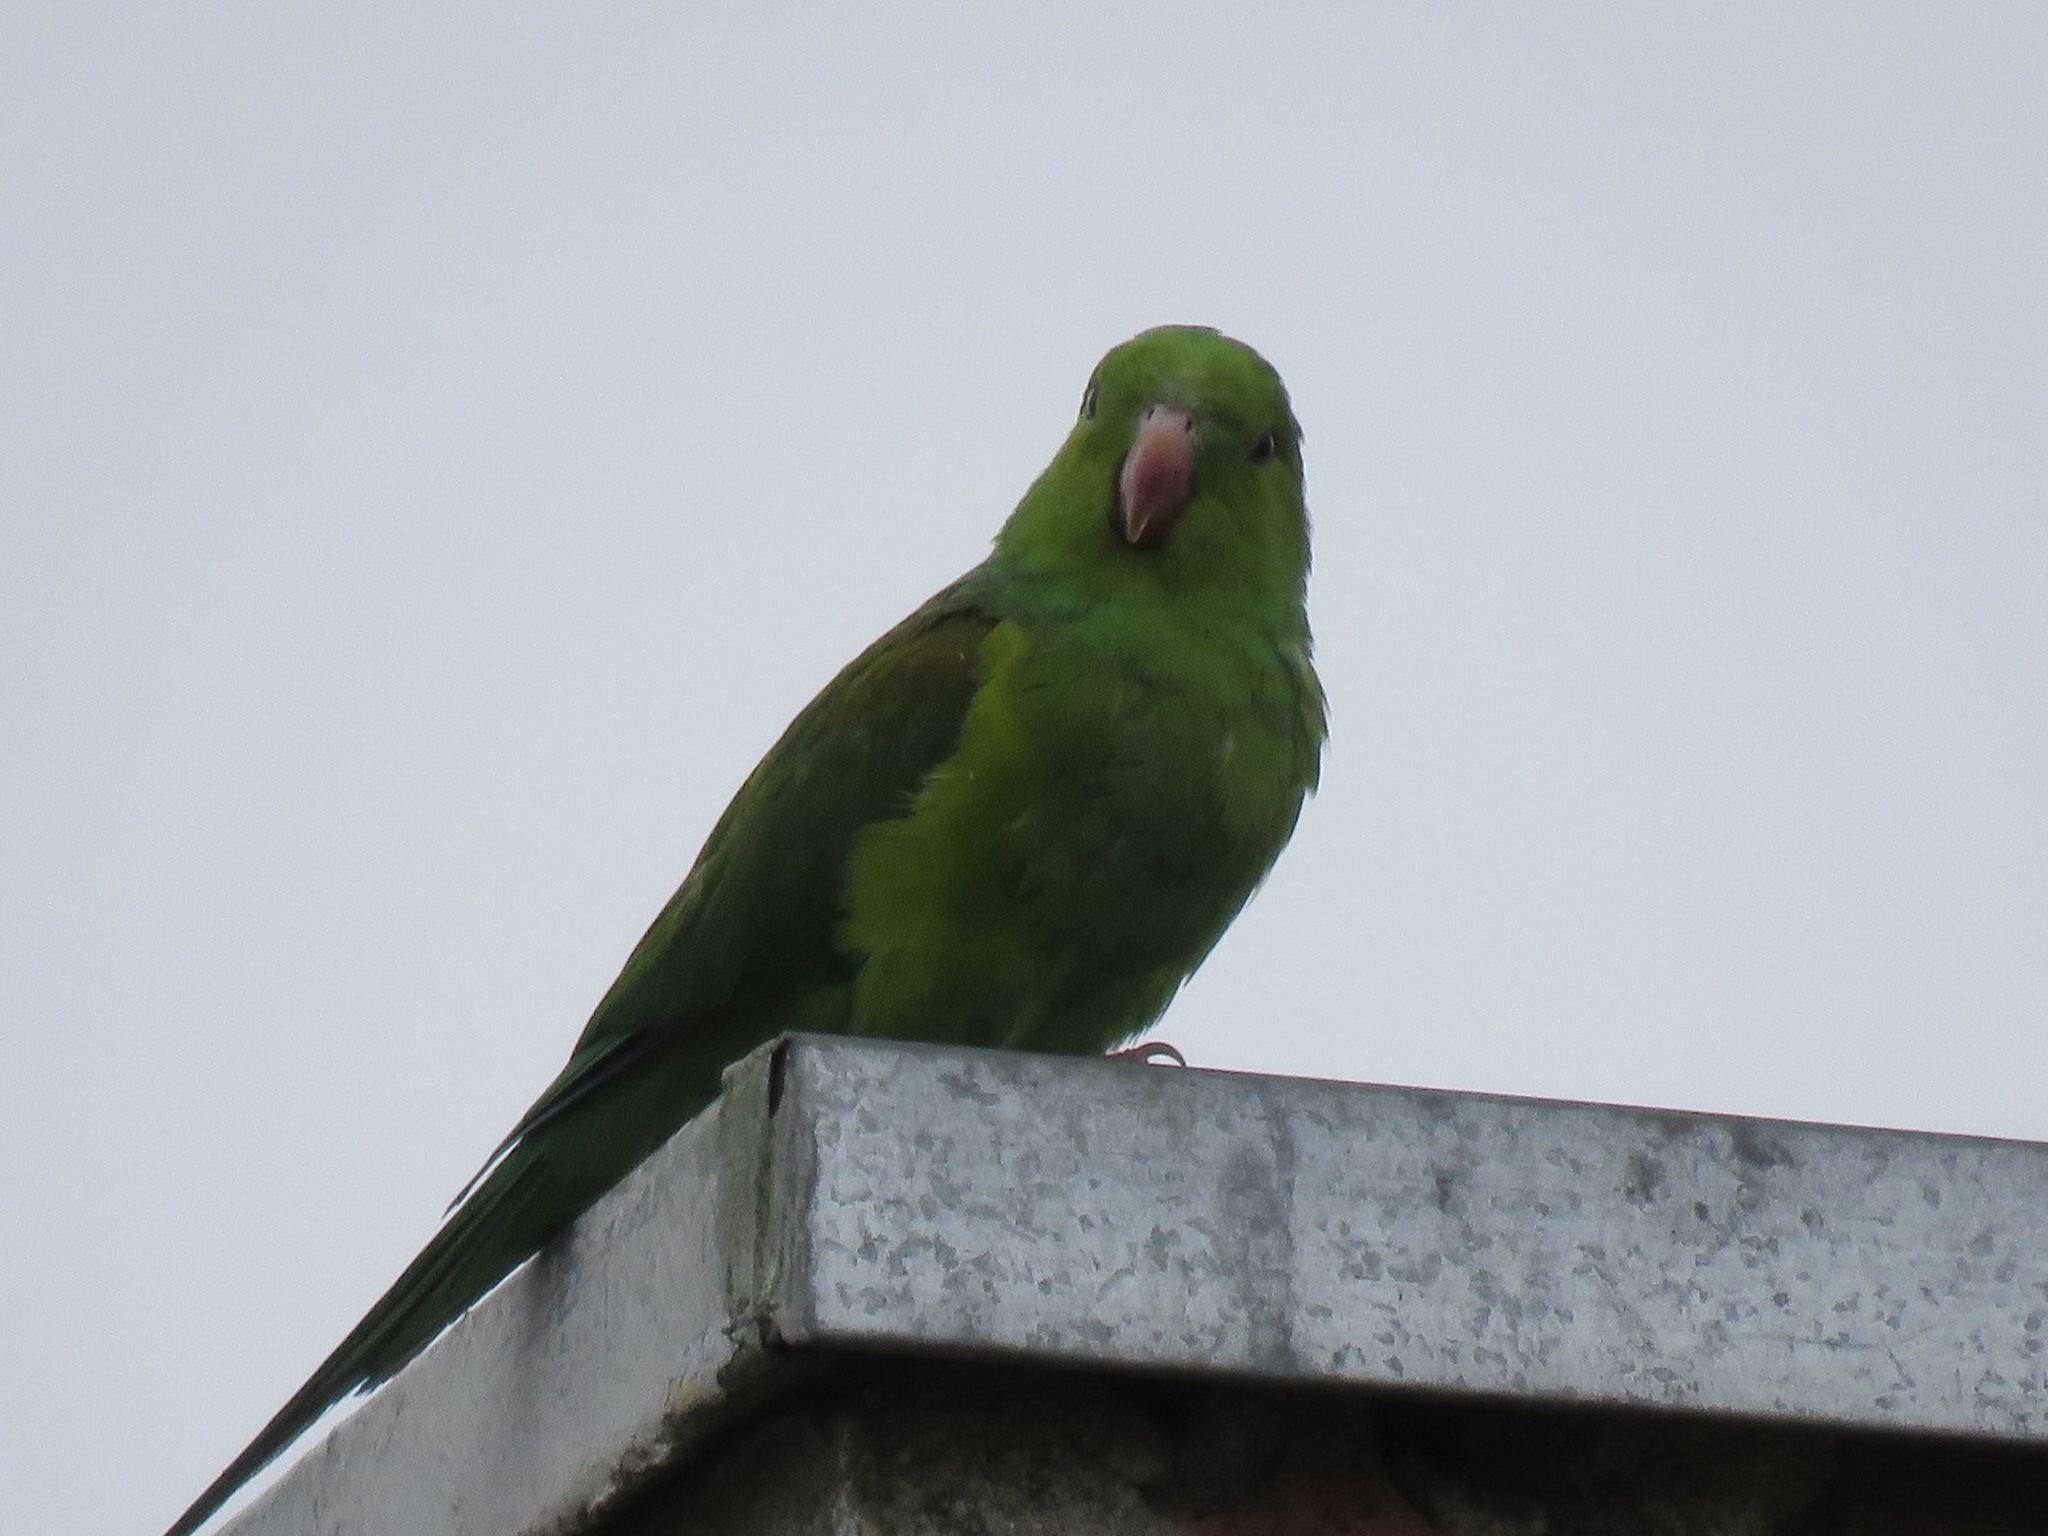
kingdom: Animalia
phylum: Chordata
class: Aves
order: Psittaciformes
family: Psittacidae
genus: Brotogeris
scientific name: Brotogeris tirica
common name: Plain parakeet
